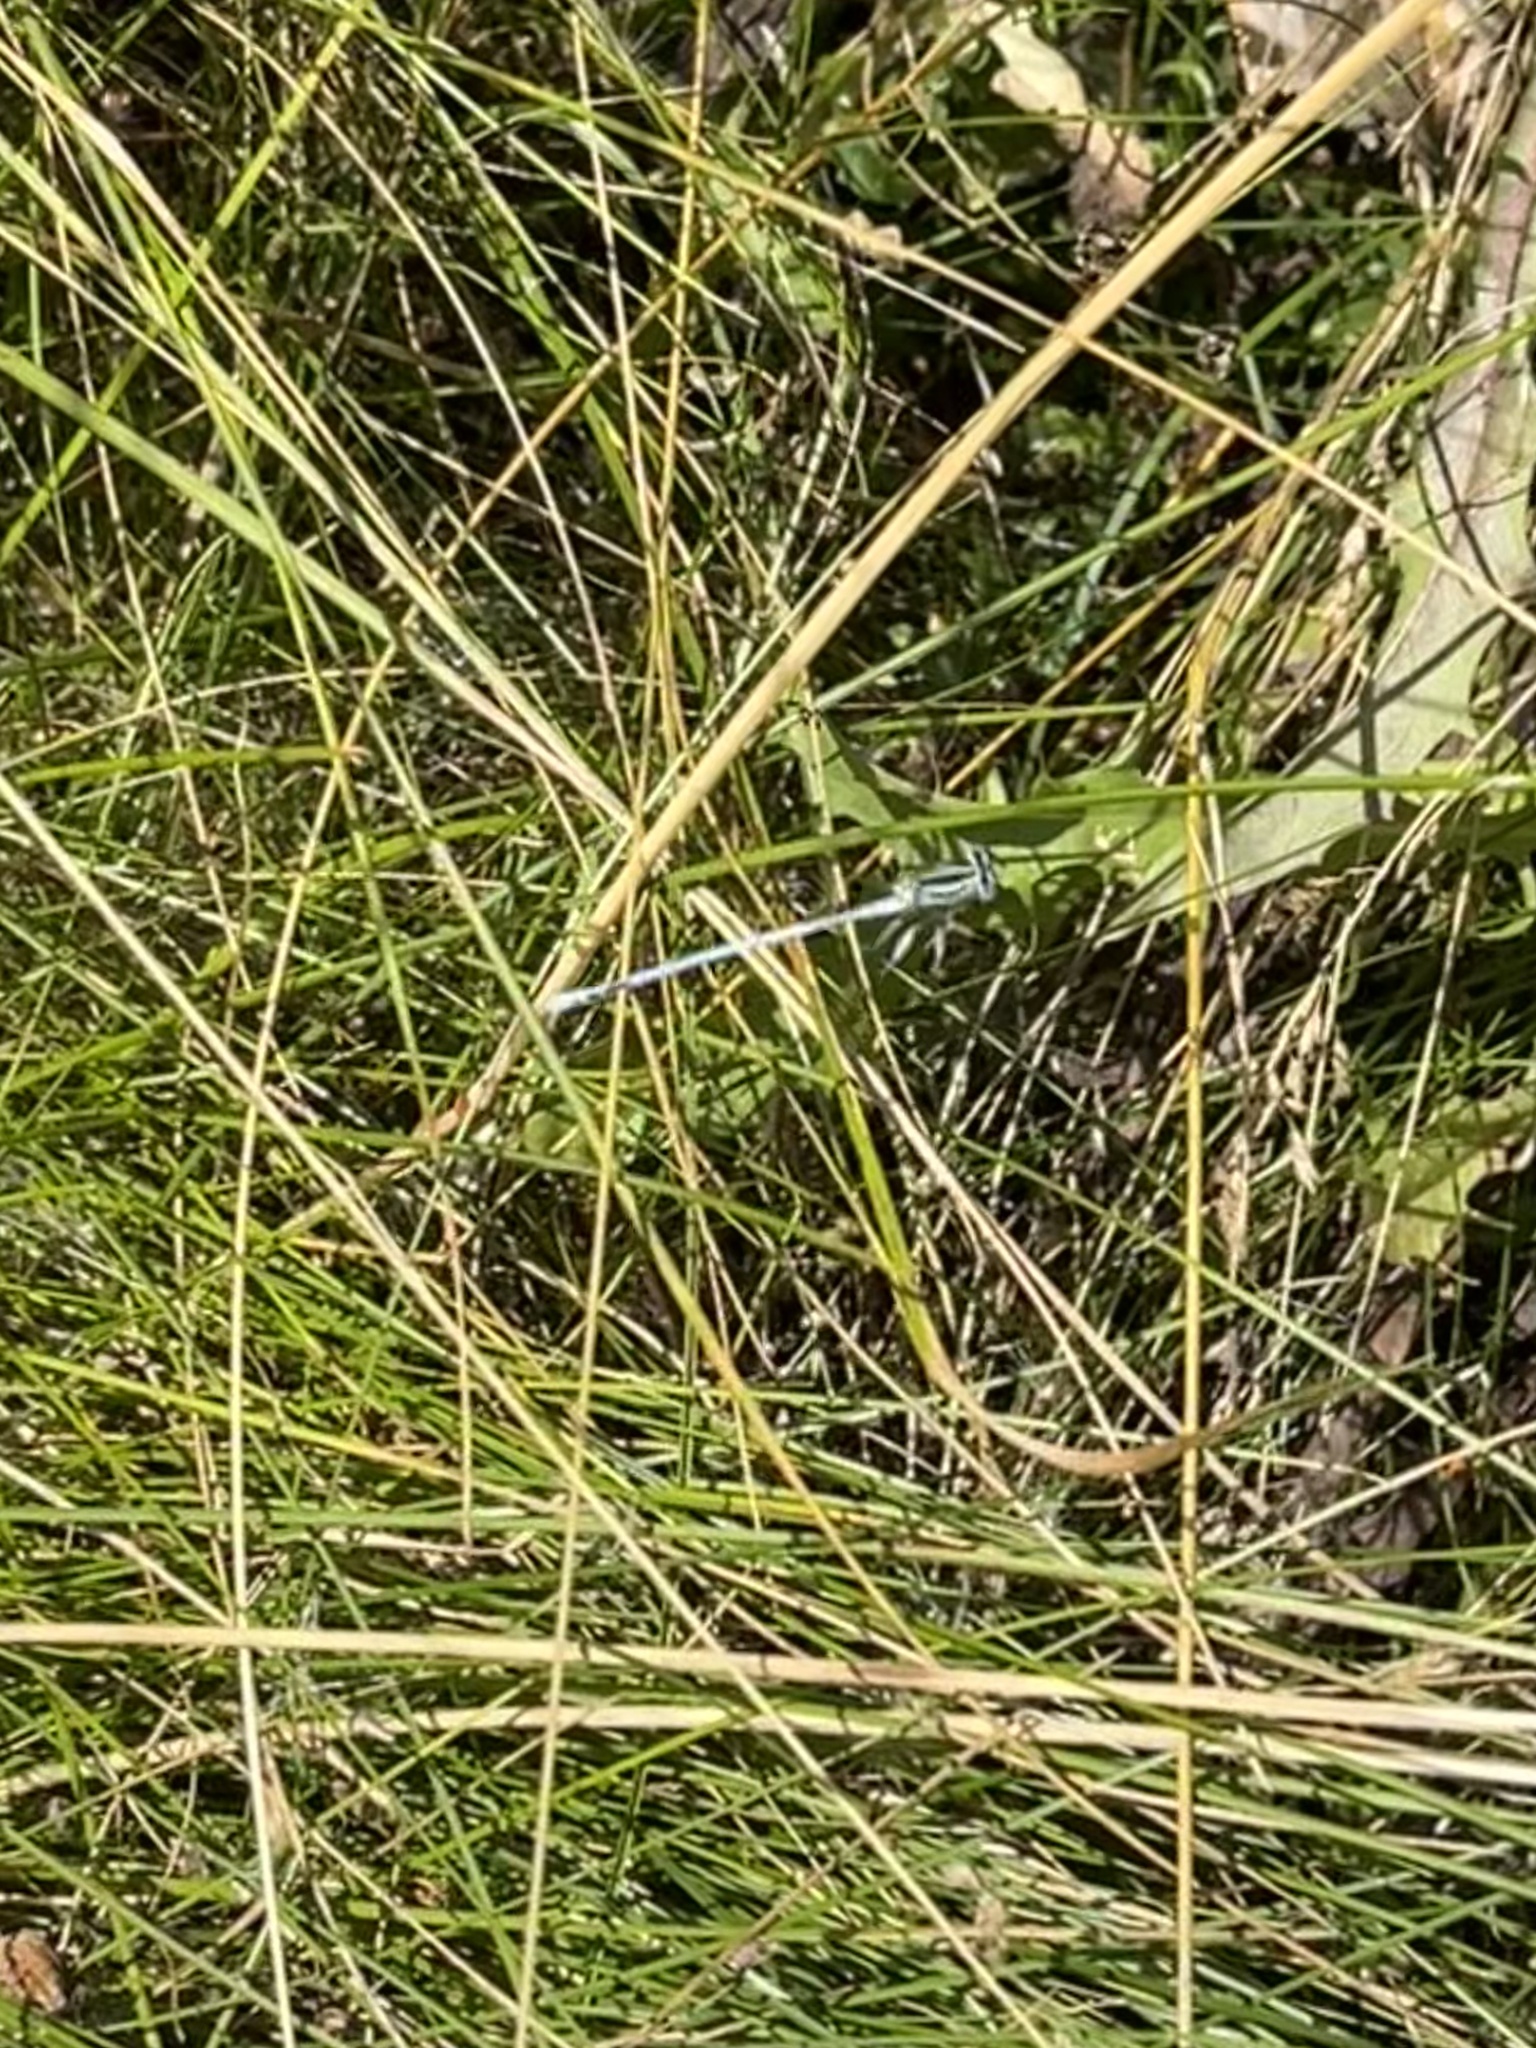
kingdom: Animalia
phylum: Arthropoda
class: Insecta
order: Odonata
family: Platycnemididae
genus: Platycnemis
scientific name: Platycnemis pennipes
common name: White-legged damselfly
